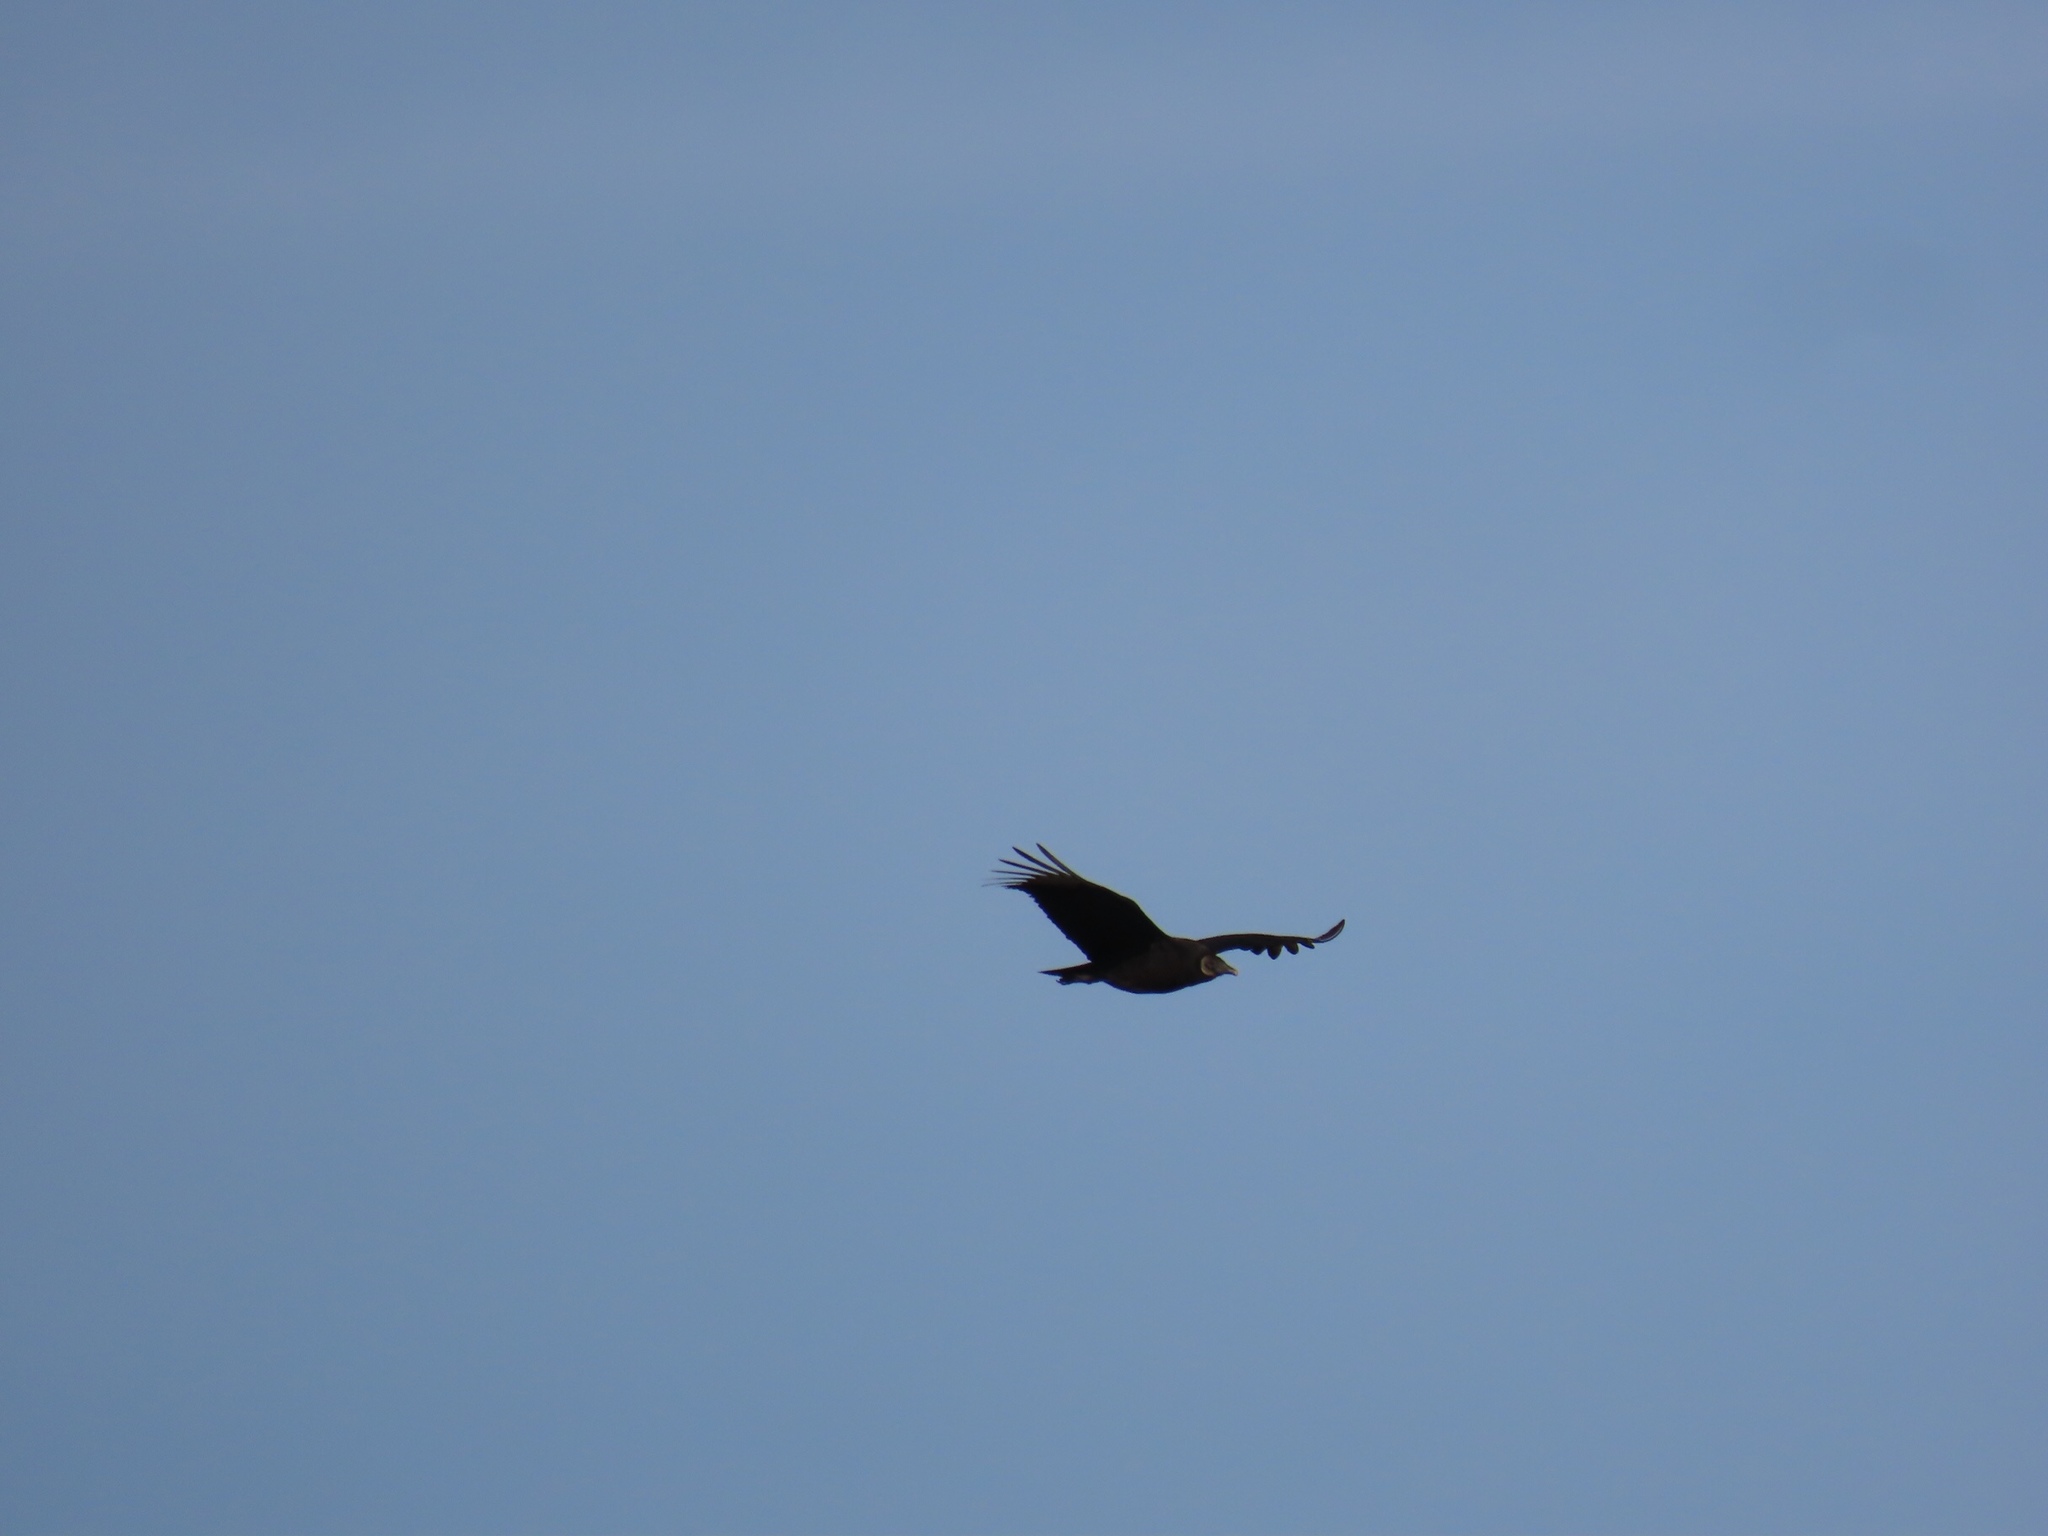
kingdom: Animalia
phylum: Chordata
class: Aves
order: Accipitriformes
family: Cathartidae
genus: Coragyps
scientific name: Coragyps atratus
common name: Black vulture
